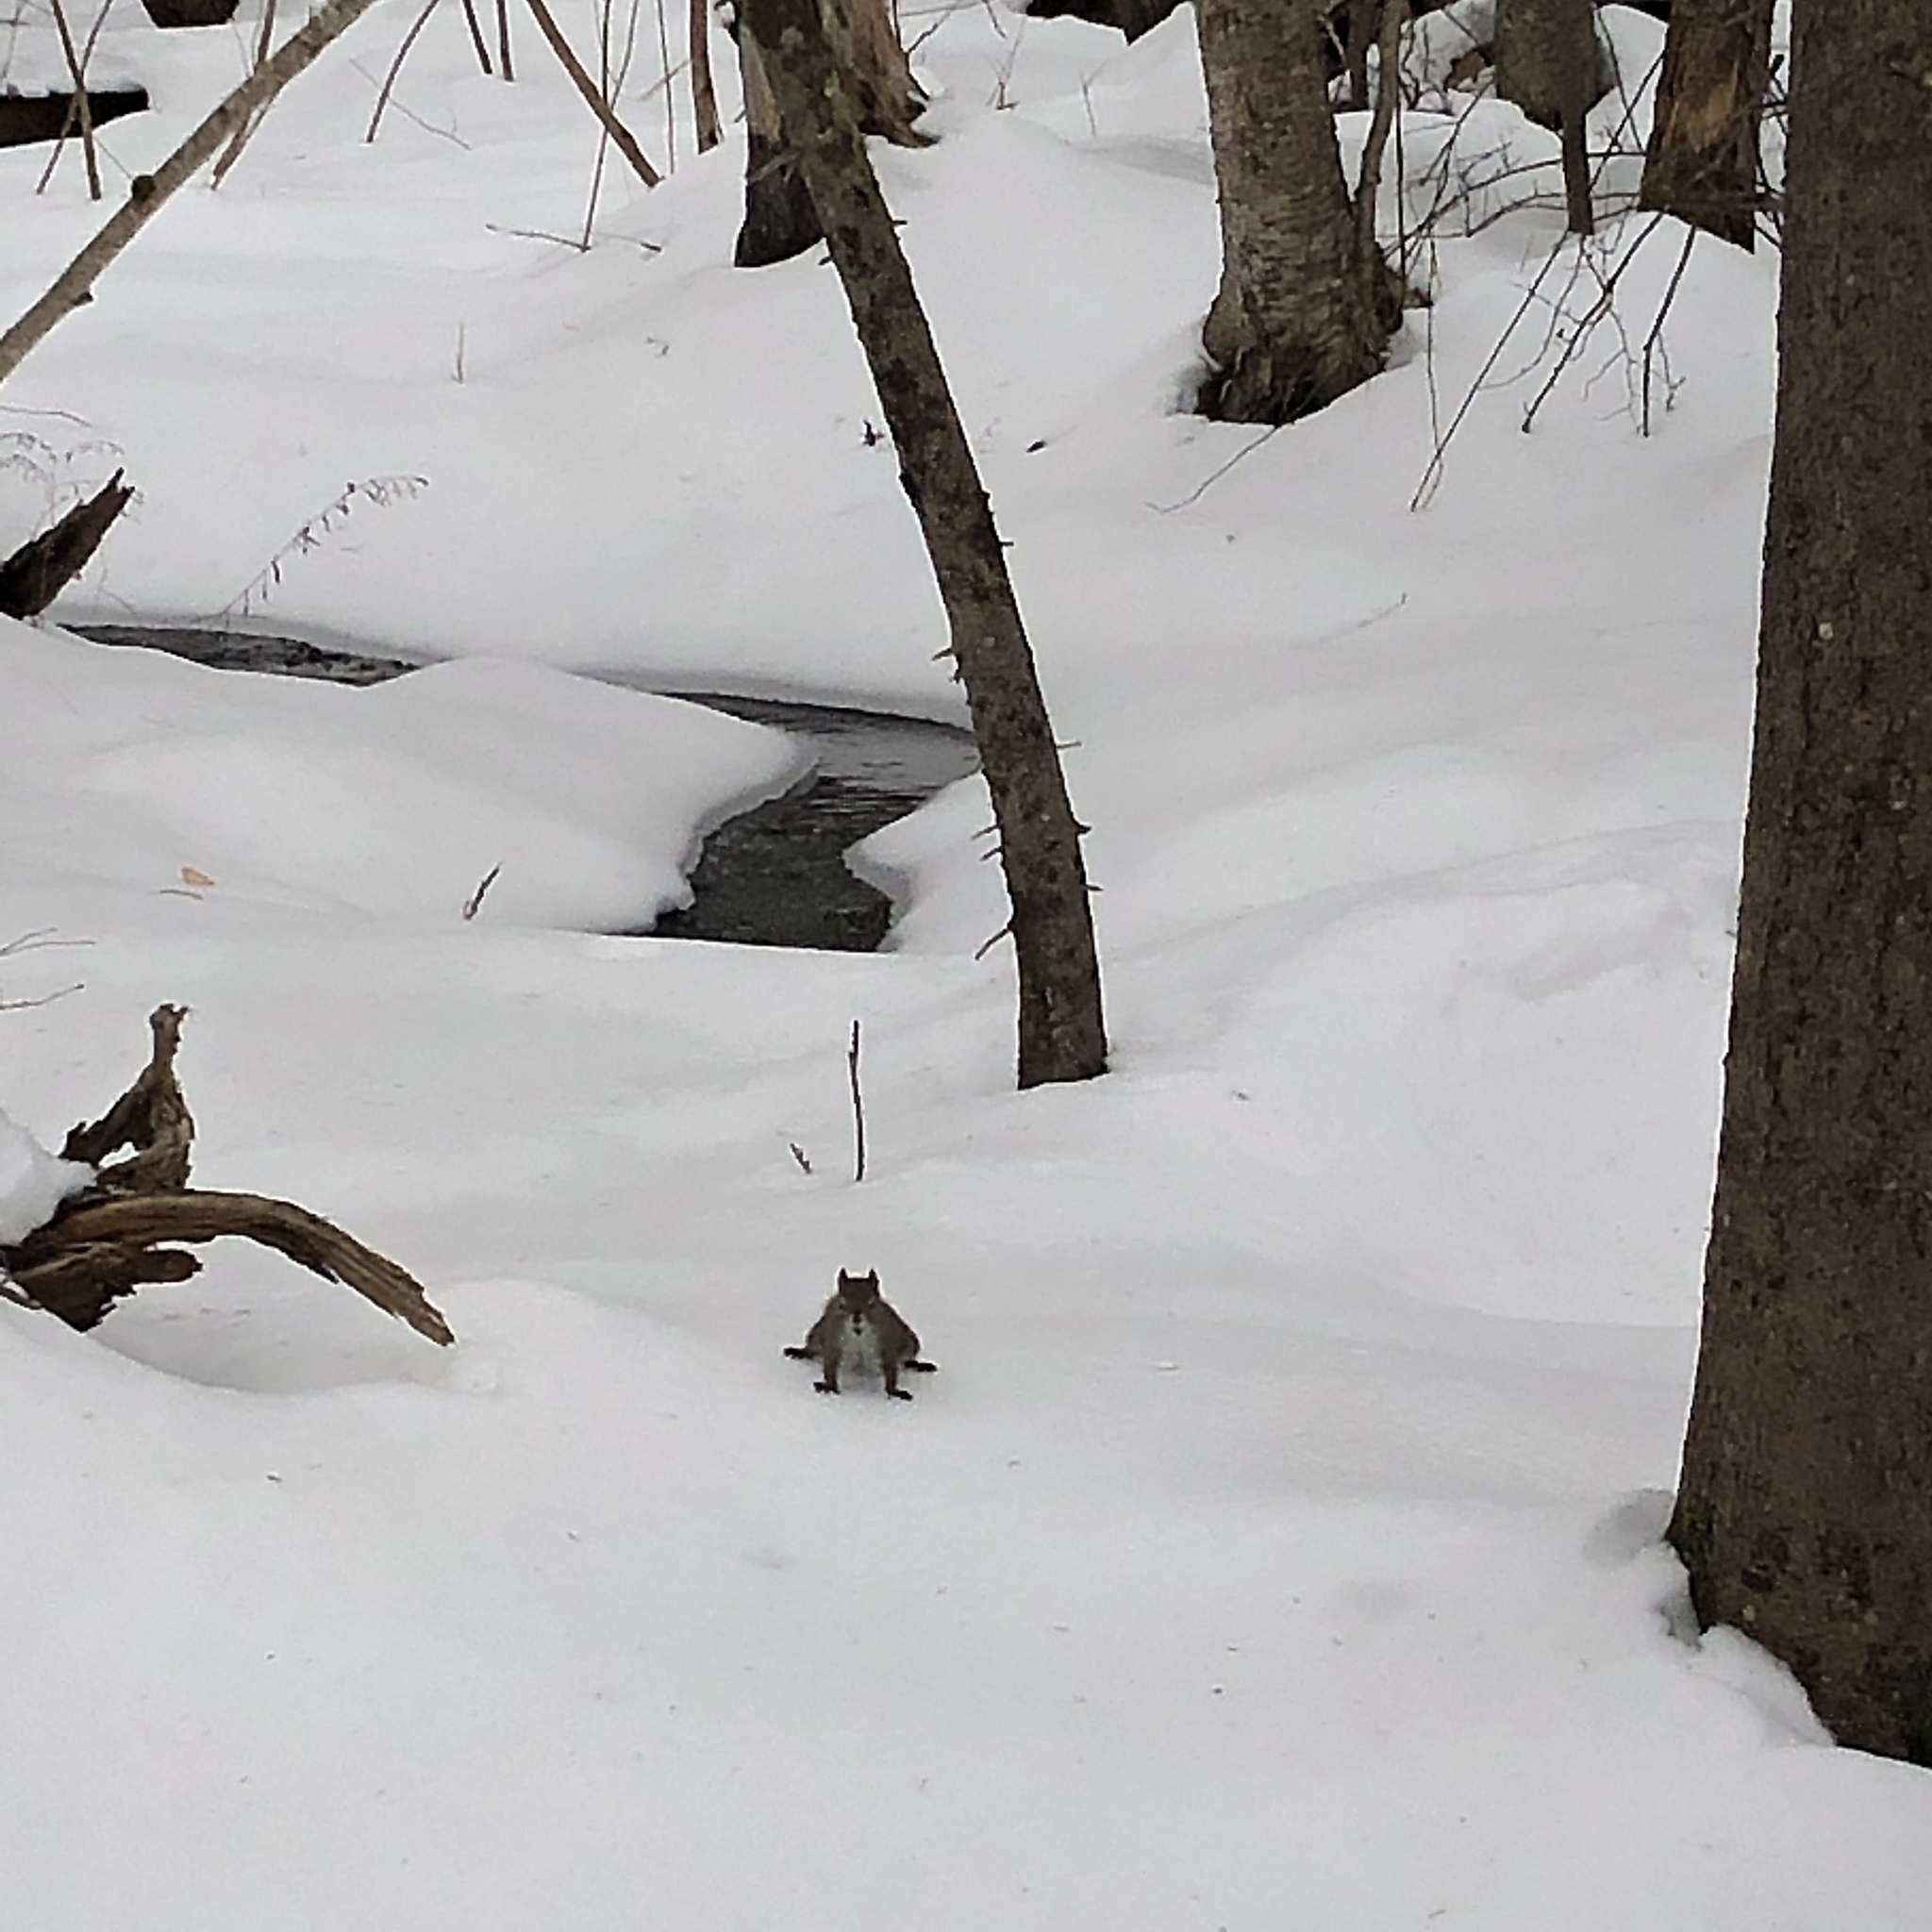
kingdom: Animalia
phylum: Chordata
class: Mammalia
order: Rodentia
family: Sciuridae
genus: Tamiasciurus
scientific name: Tamiasciurus hudsonicus
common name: Red squirrel
